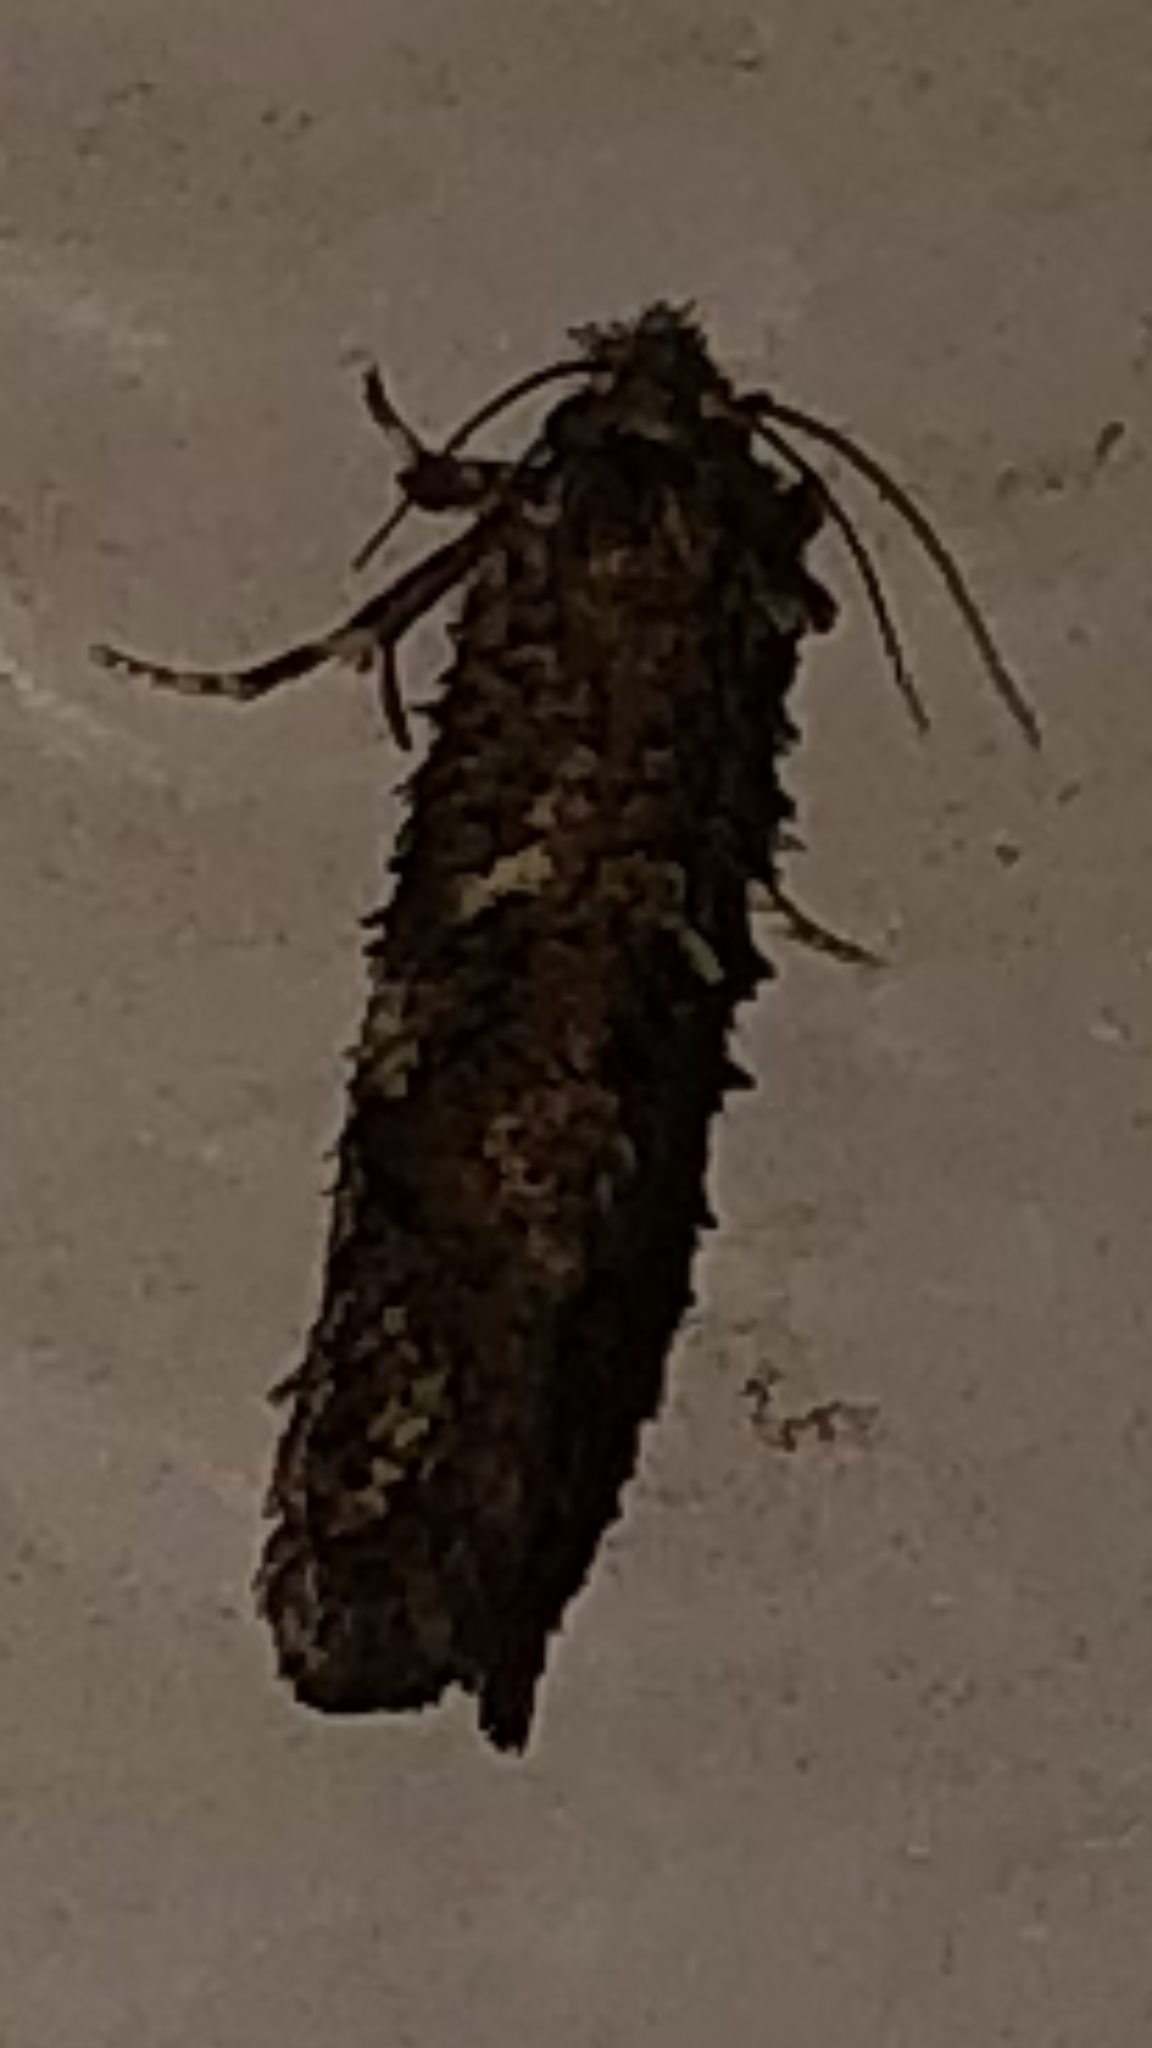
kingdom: Animalia
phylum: Arthropoda
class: Insecta
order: Lepidoptera
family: Tineidae
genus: Acrolophus
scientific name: Acrolophus cressoni
